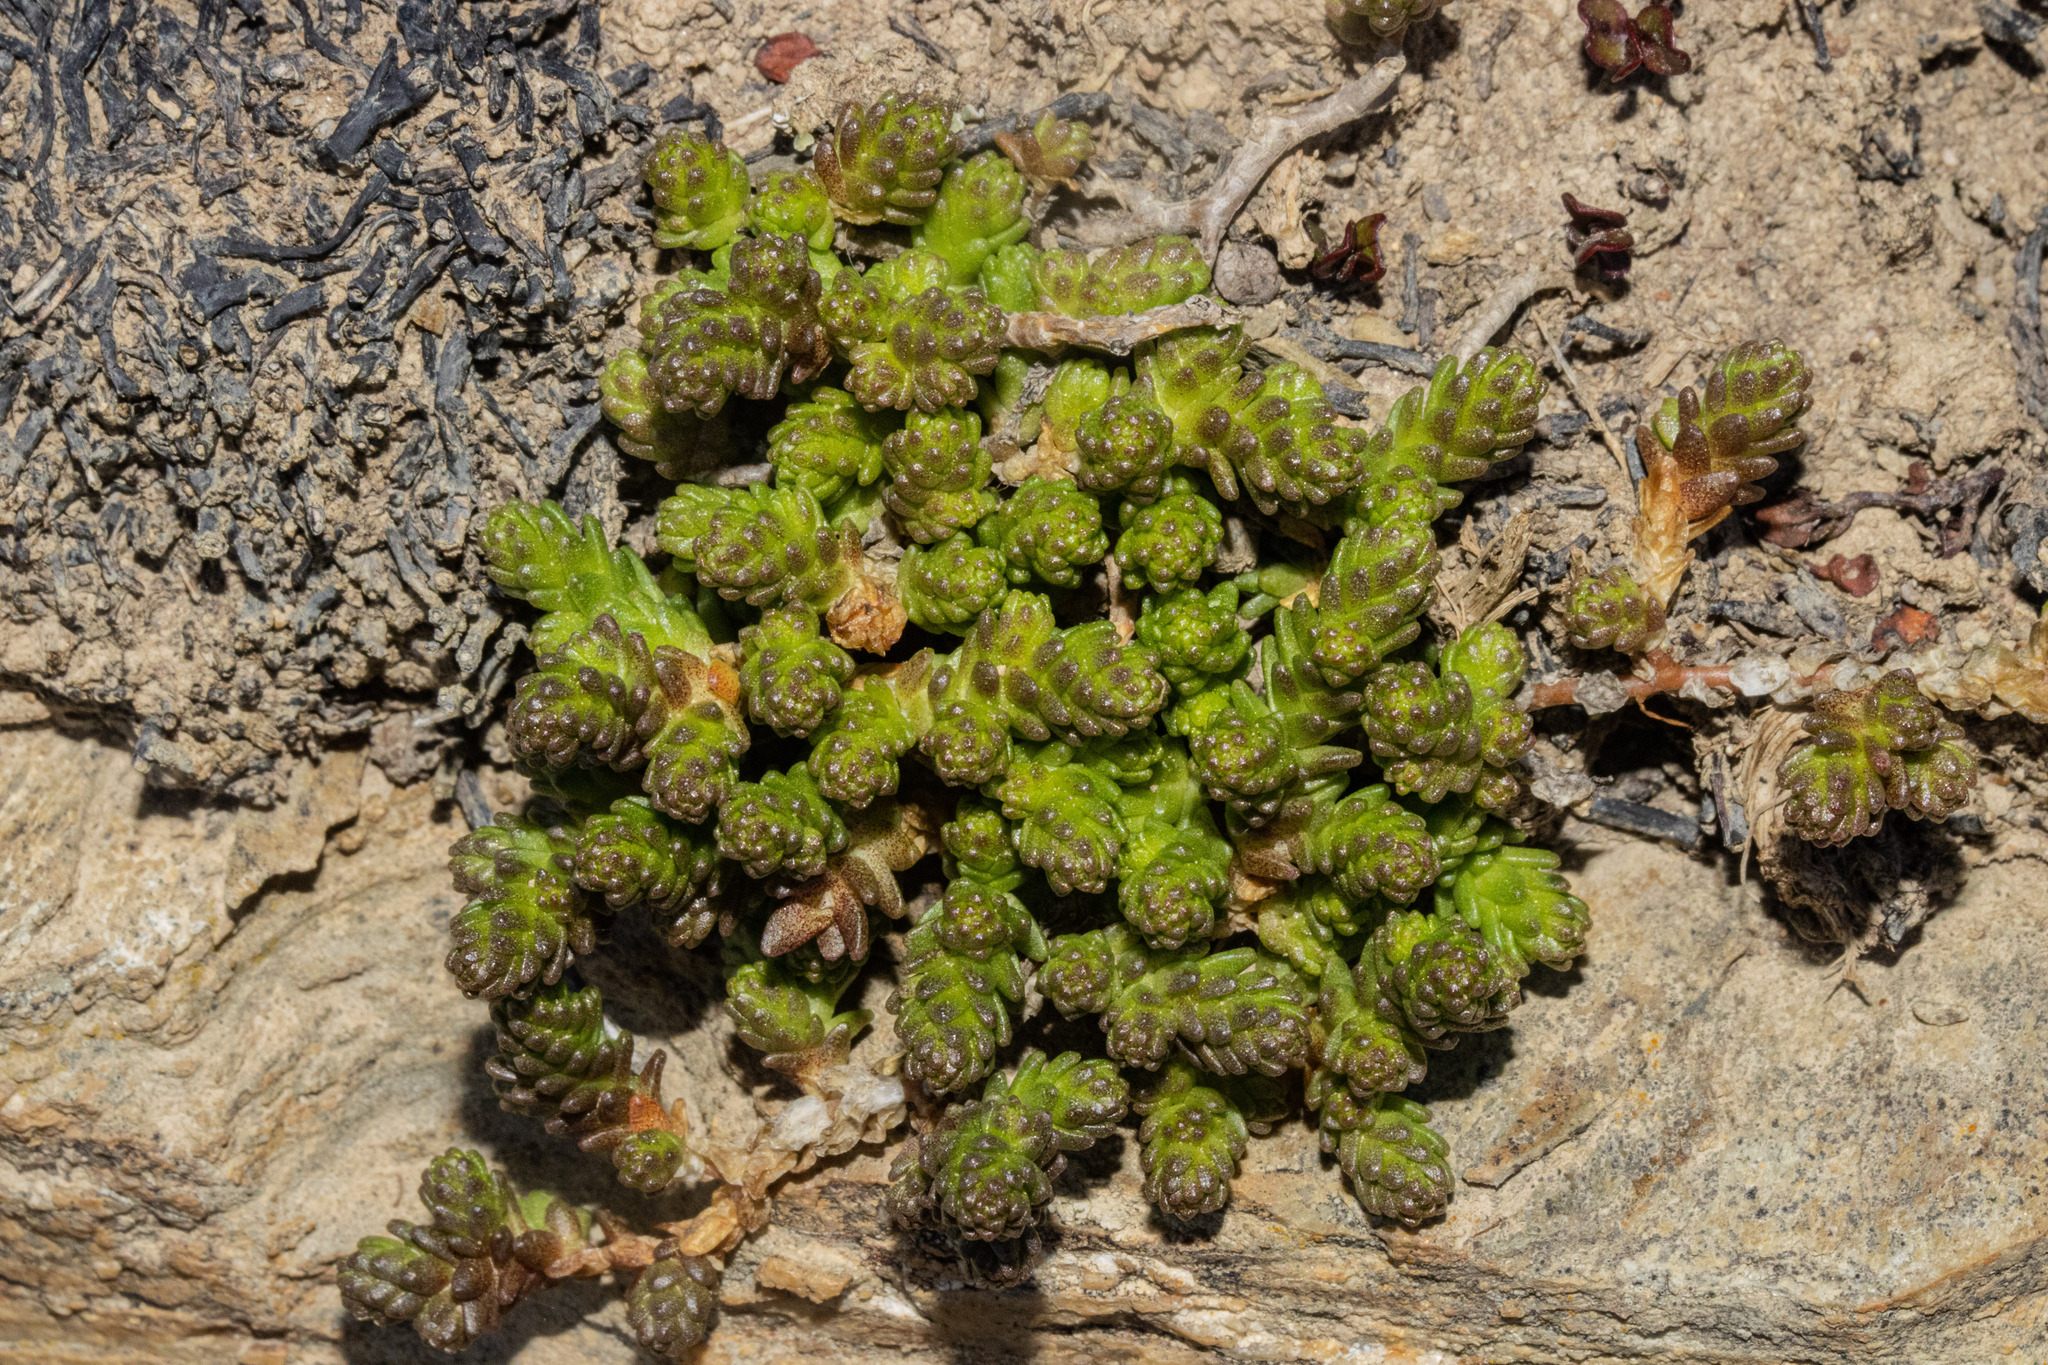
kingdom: Plantae
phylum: Tracheophyta
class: Magnoliopsida
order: Saxifragales
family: Crassulaceae
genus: Sedum
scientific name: Sedum acre
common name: Biting stonecrop
